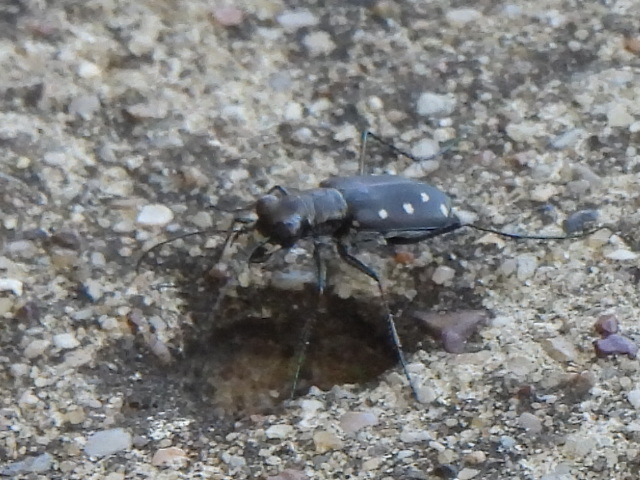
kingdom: Animalia
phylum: Arthropoda
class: Insecta
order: Coleoptera
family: Carabidae
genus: Cicindela
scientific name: Cicindela ocellata
